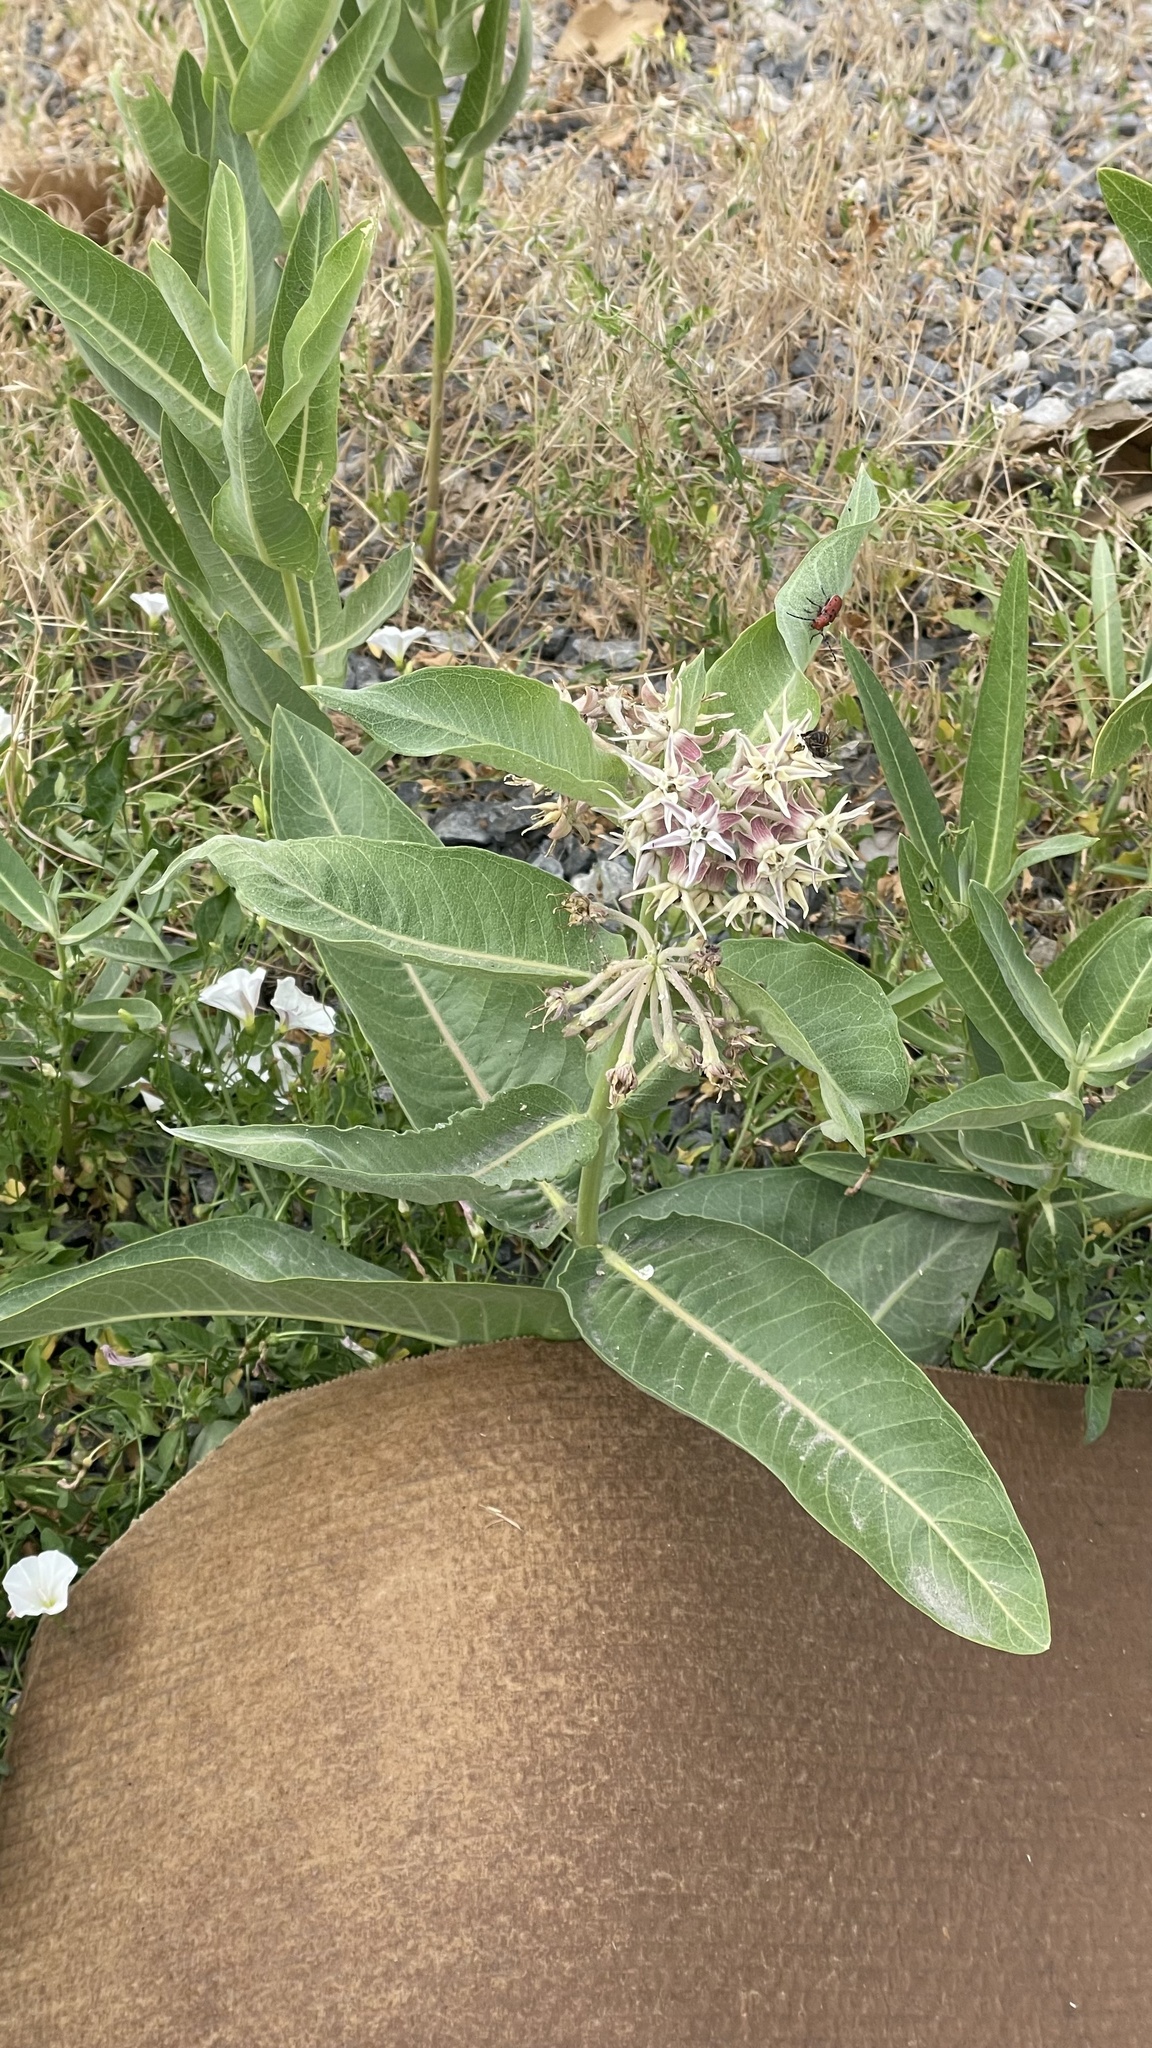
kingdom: Plantae
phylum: Tracheophyta
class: Magnoliopsida
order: Gentianales
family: Apocynaceae
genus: Asclepias
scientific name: Asclepias speciosa
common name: Showy milkweed
